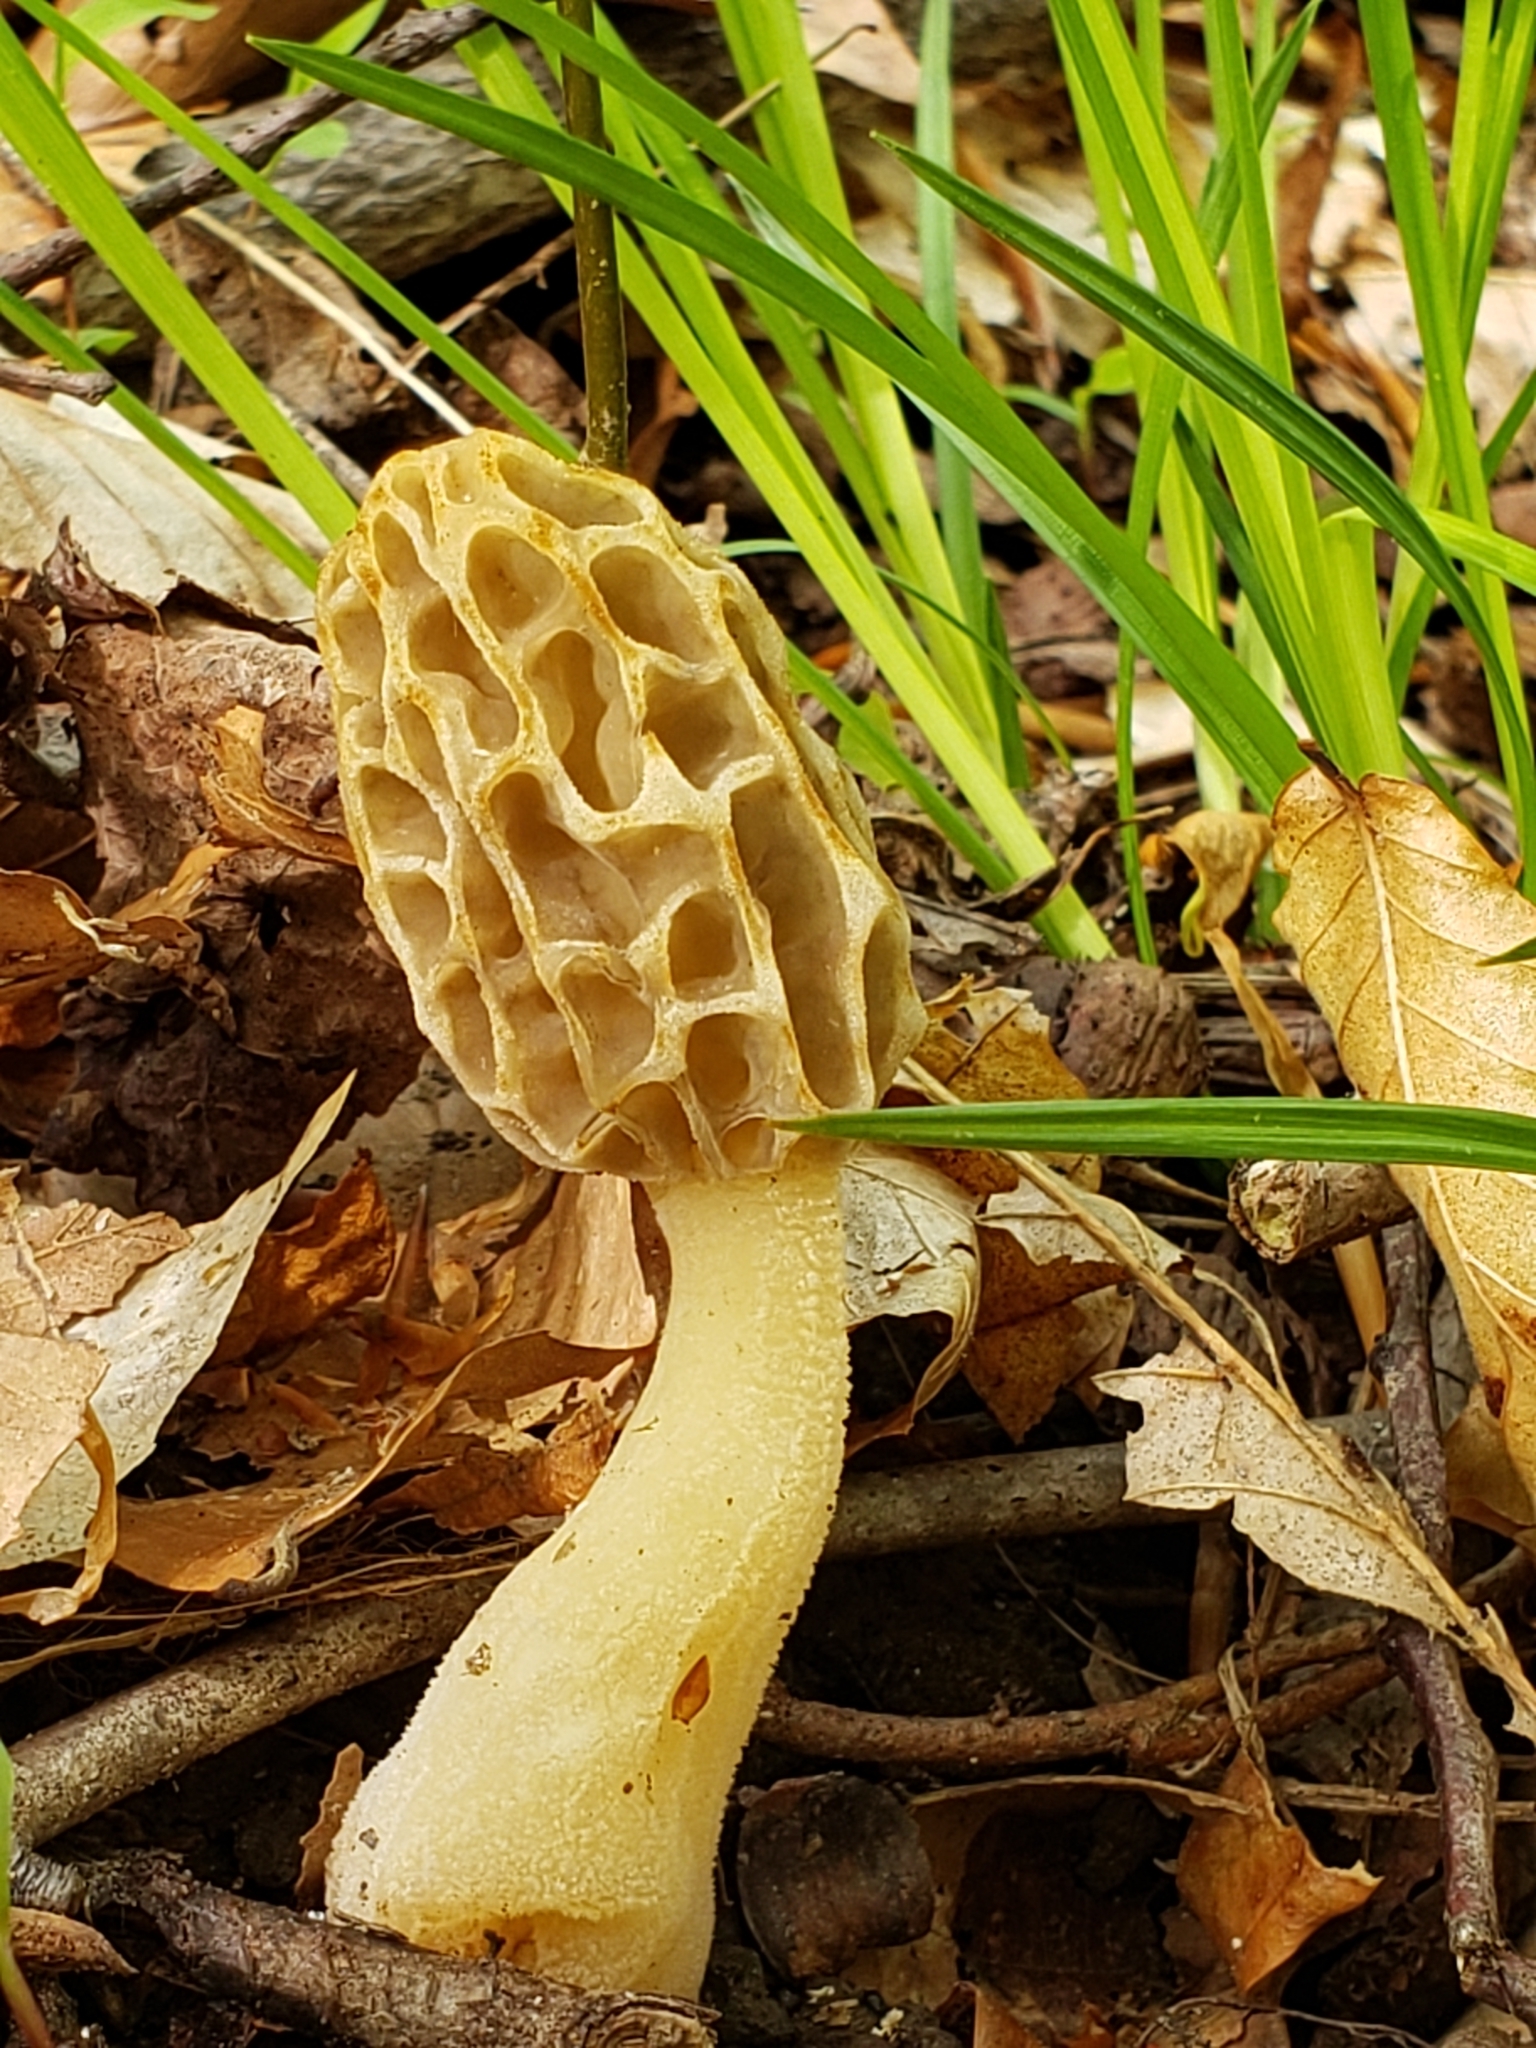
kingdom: Fungi
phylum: Ascomycota
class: Pezizomycetes
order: Pezizales
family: Morchellaceae
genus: Morchella
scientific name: Morchella diminutiva
